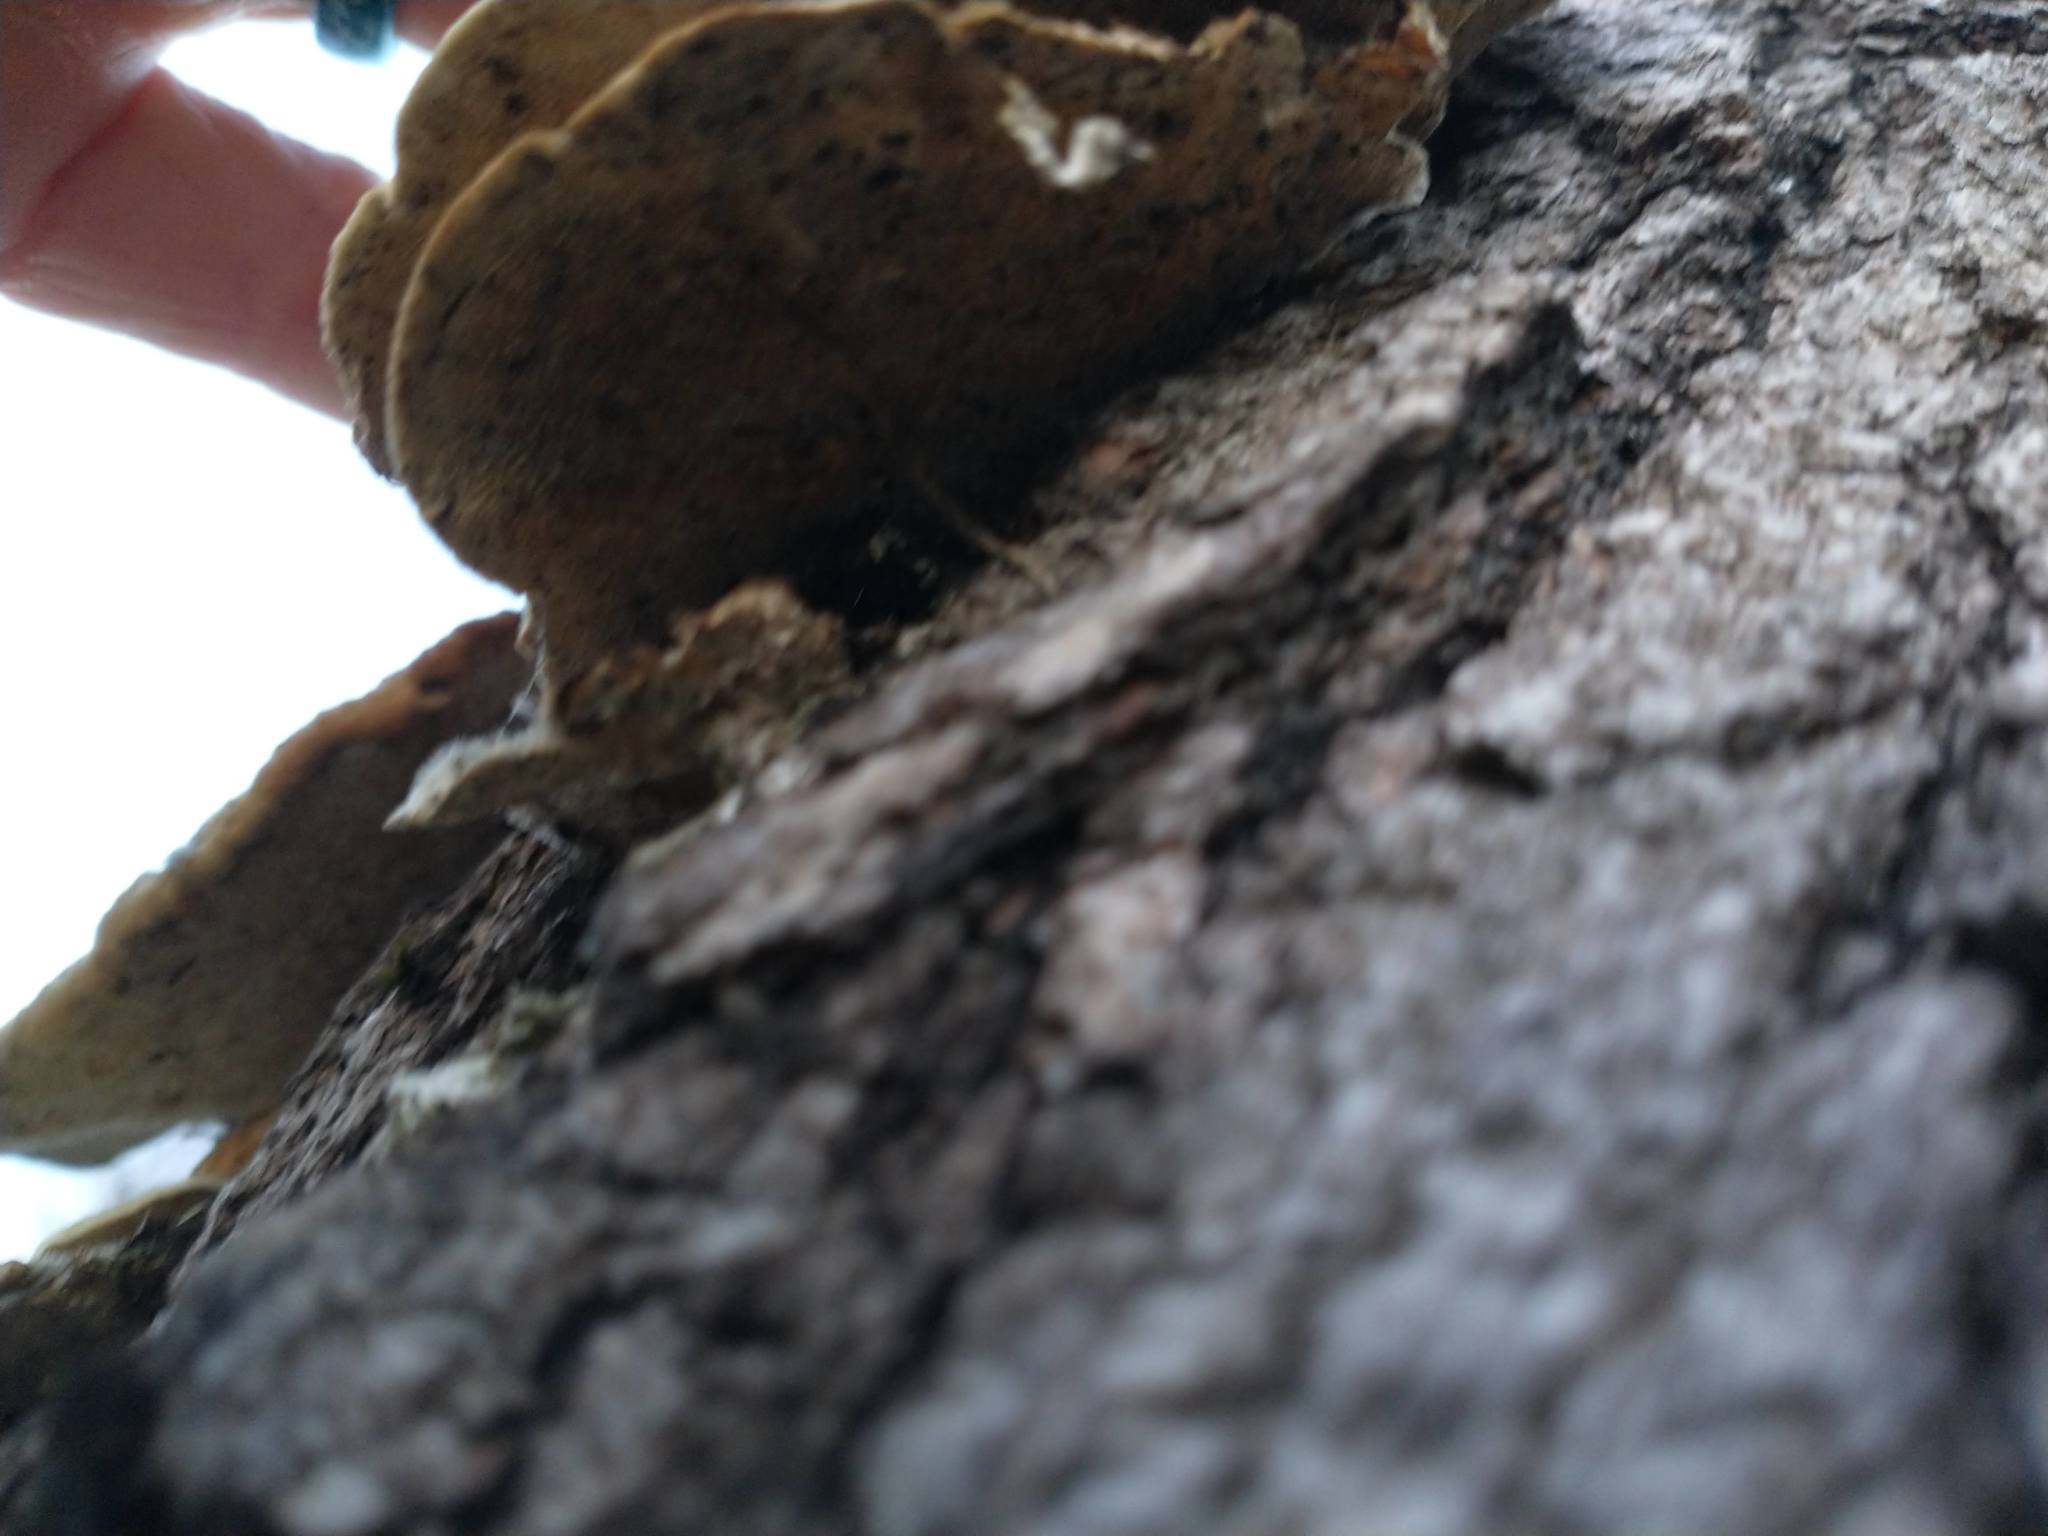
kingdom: Fungi
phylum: Basidiomycota
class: Agaricomycetes
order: Polyporales
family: Polyporaceae
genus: Trametes
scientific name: Trametes hirsuta
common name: Hairy bracket
